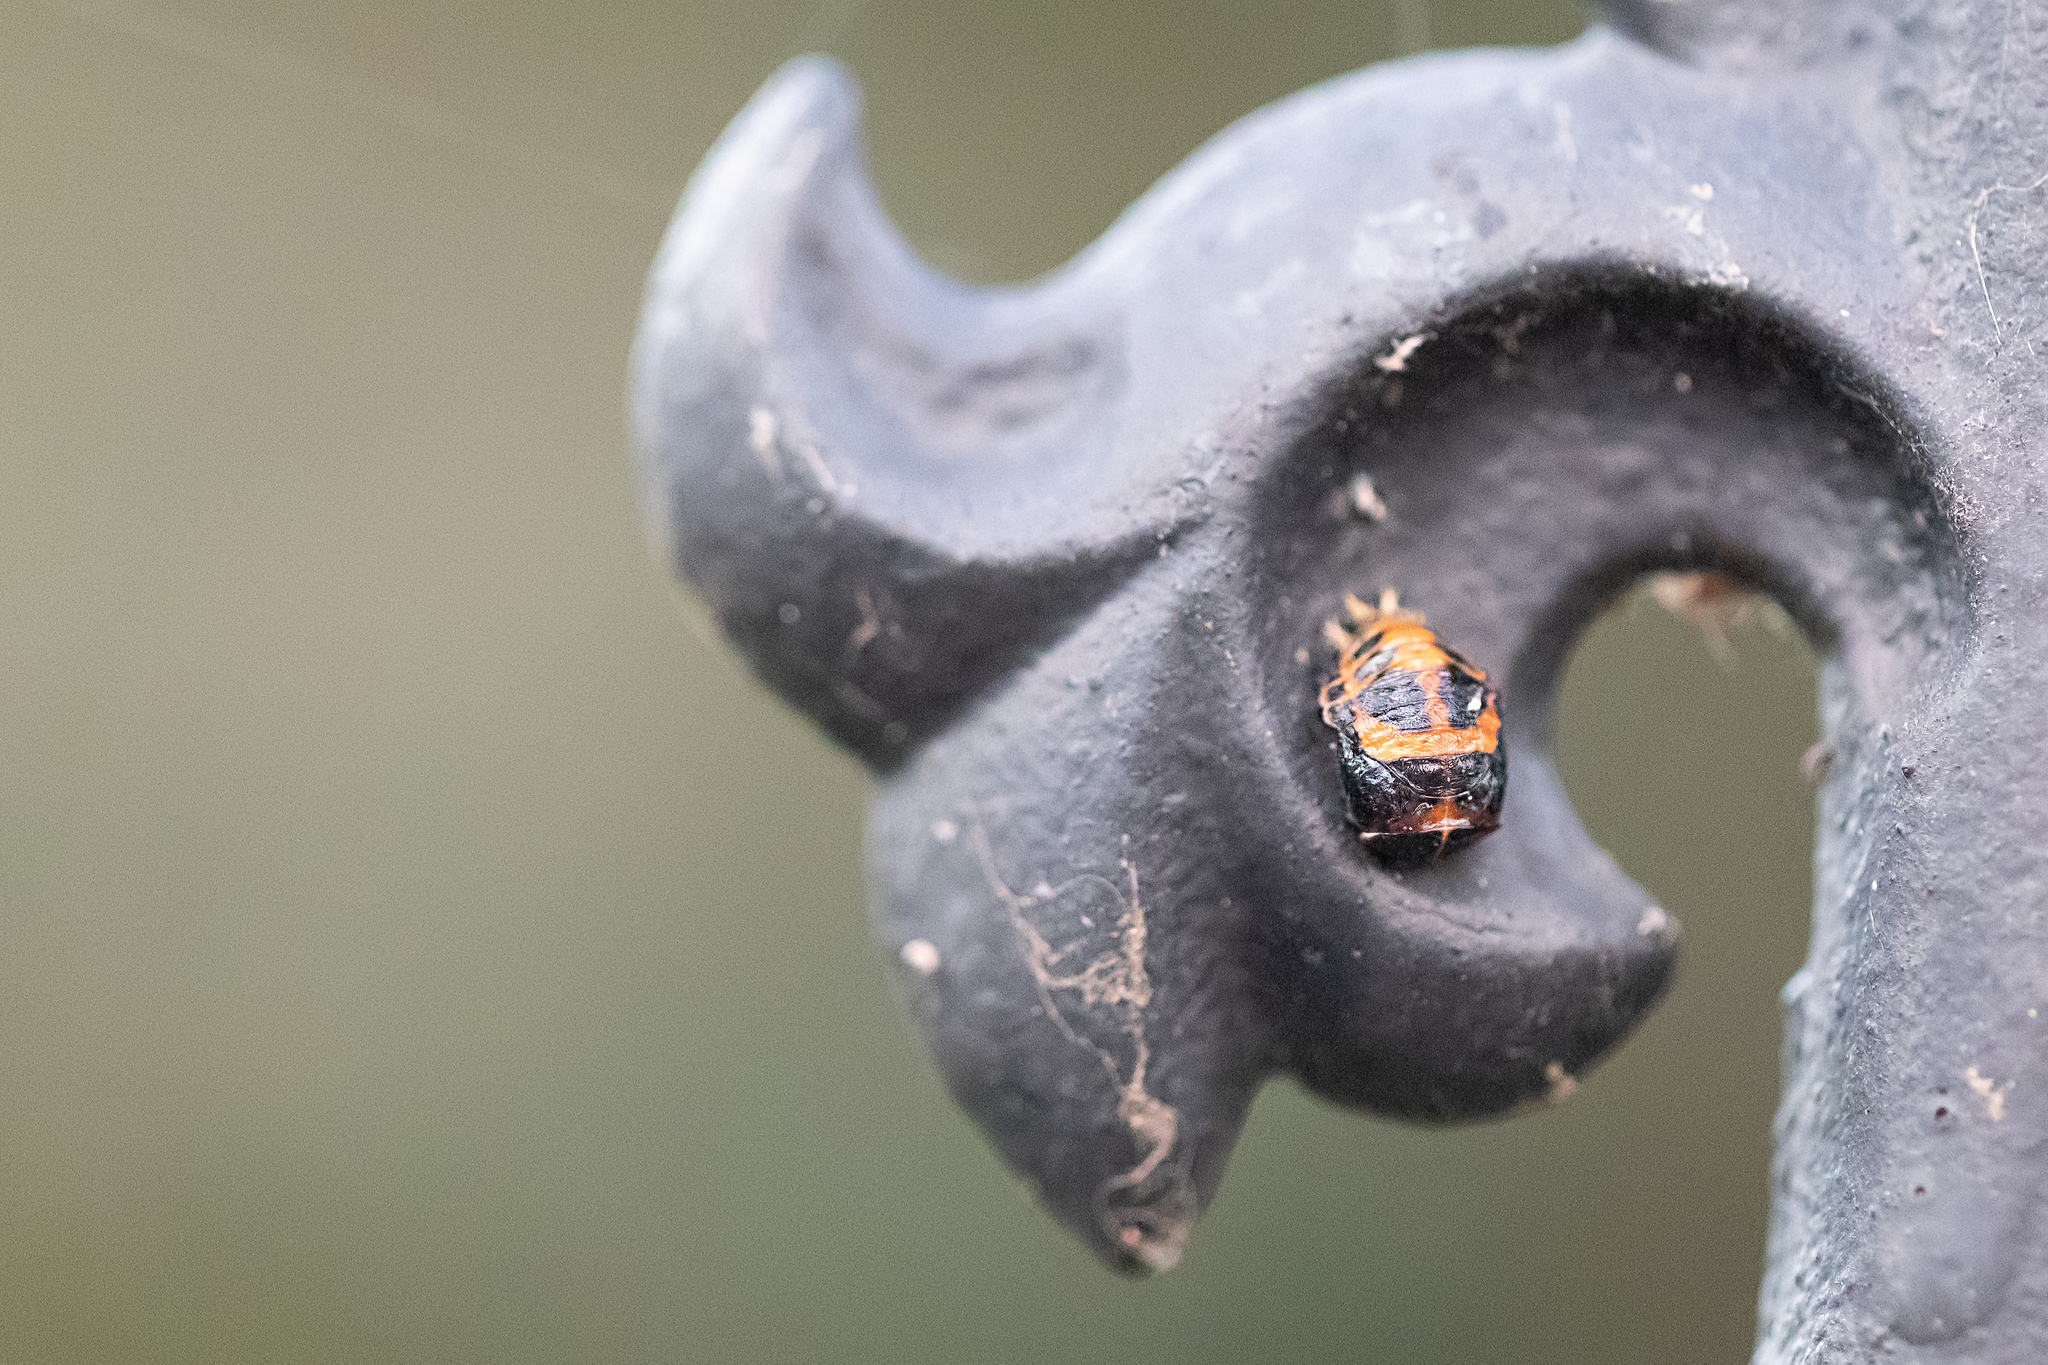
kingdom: Animalia
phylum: Arthropoda
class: Insecta
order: Coleoptera
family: Coccinellidae
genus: Harmonia
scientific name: Harmonia axyridis
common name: Harlequin ladybird
